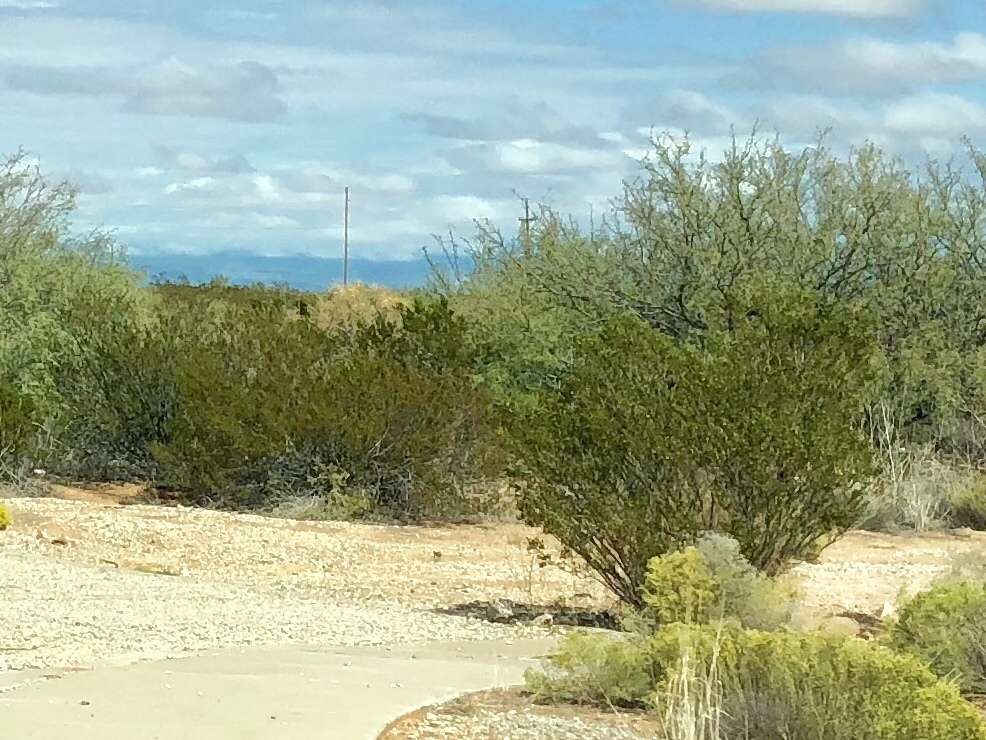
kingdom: Plantae
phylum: Tracheophyta
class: Magnoliopsida
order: Zygophyllales
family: Zygophyllaceae
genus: Larrea
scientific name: Larrea tridentata
